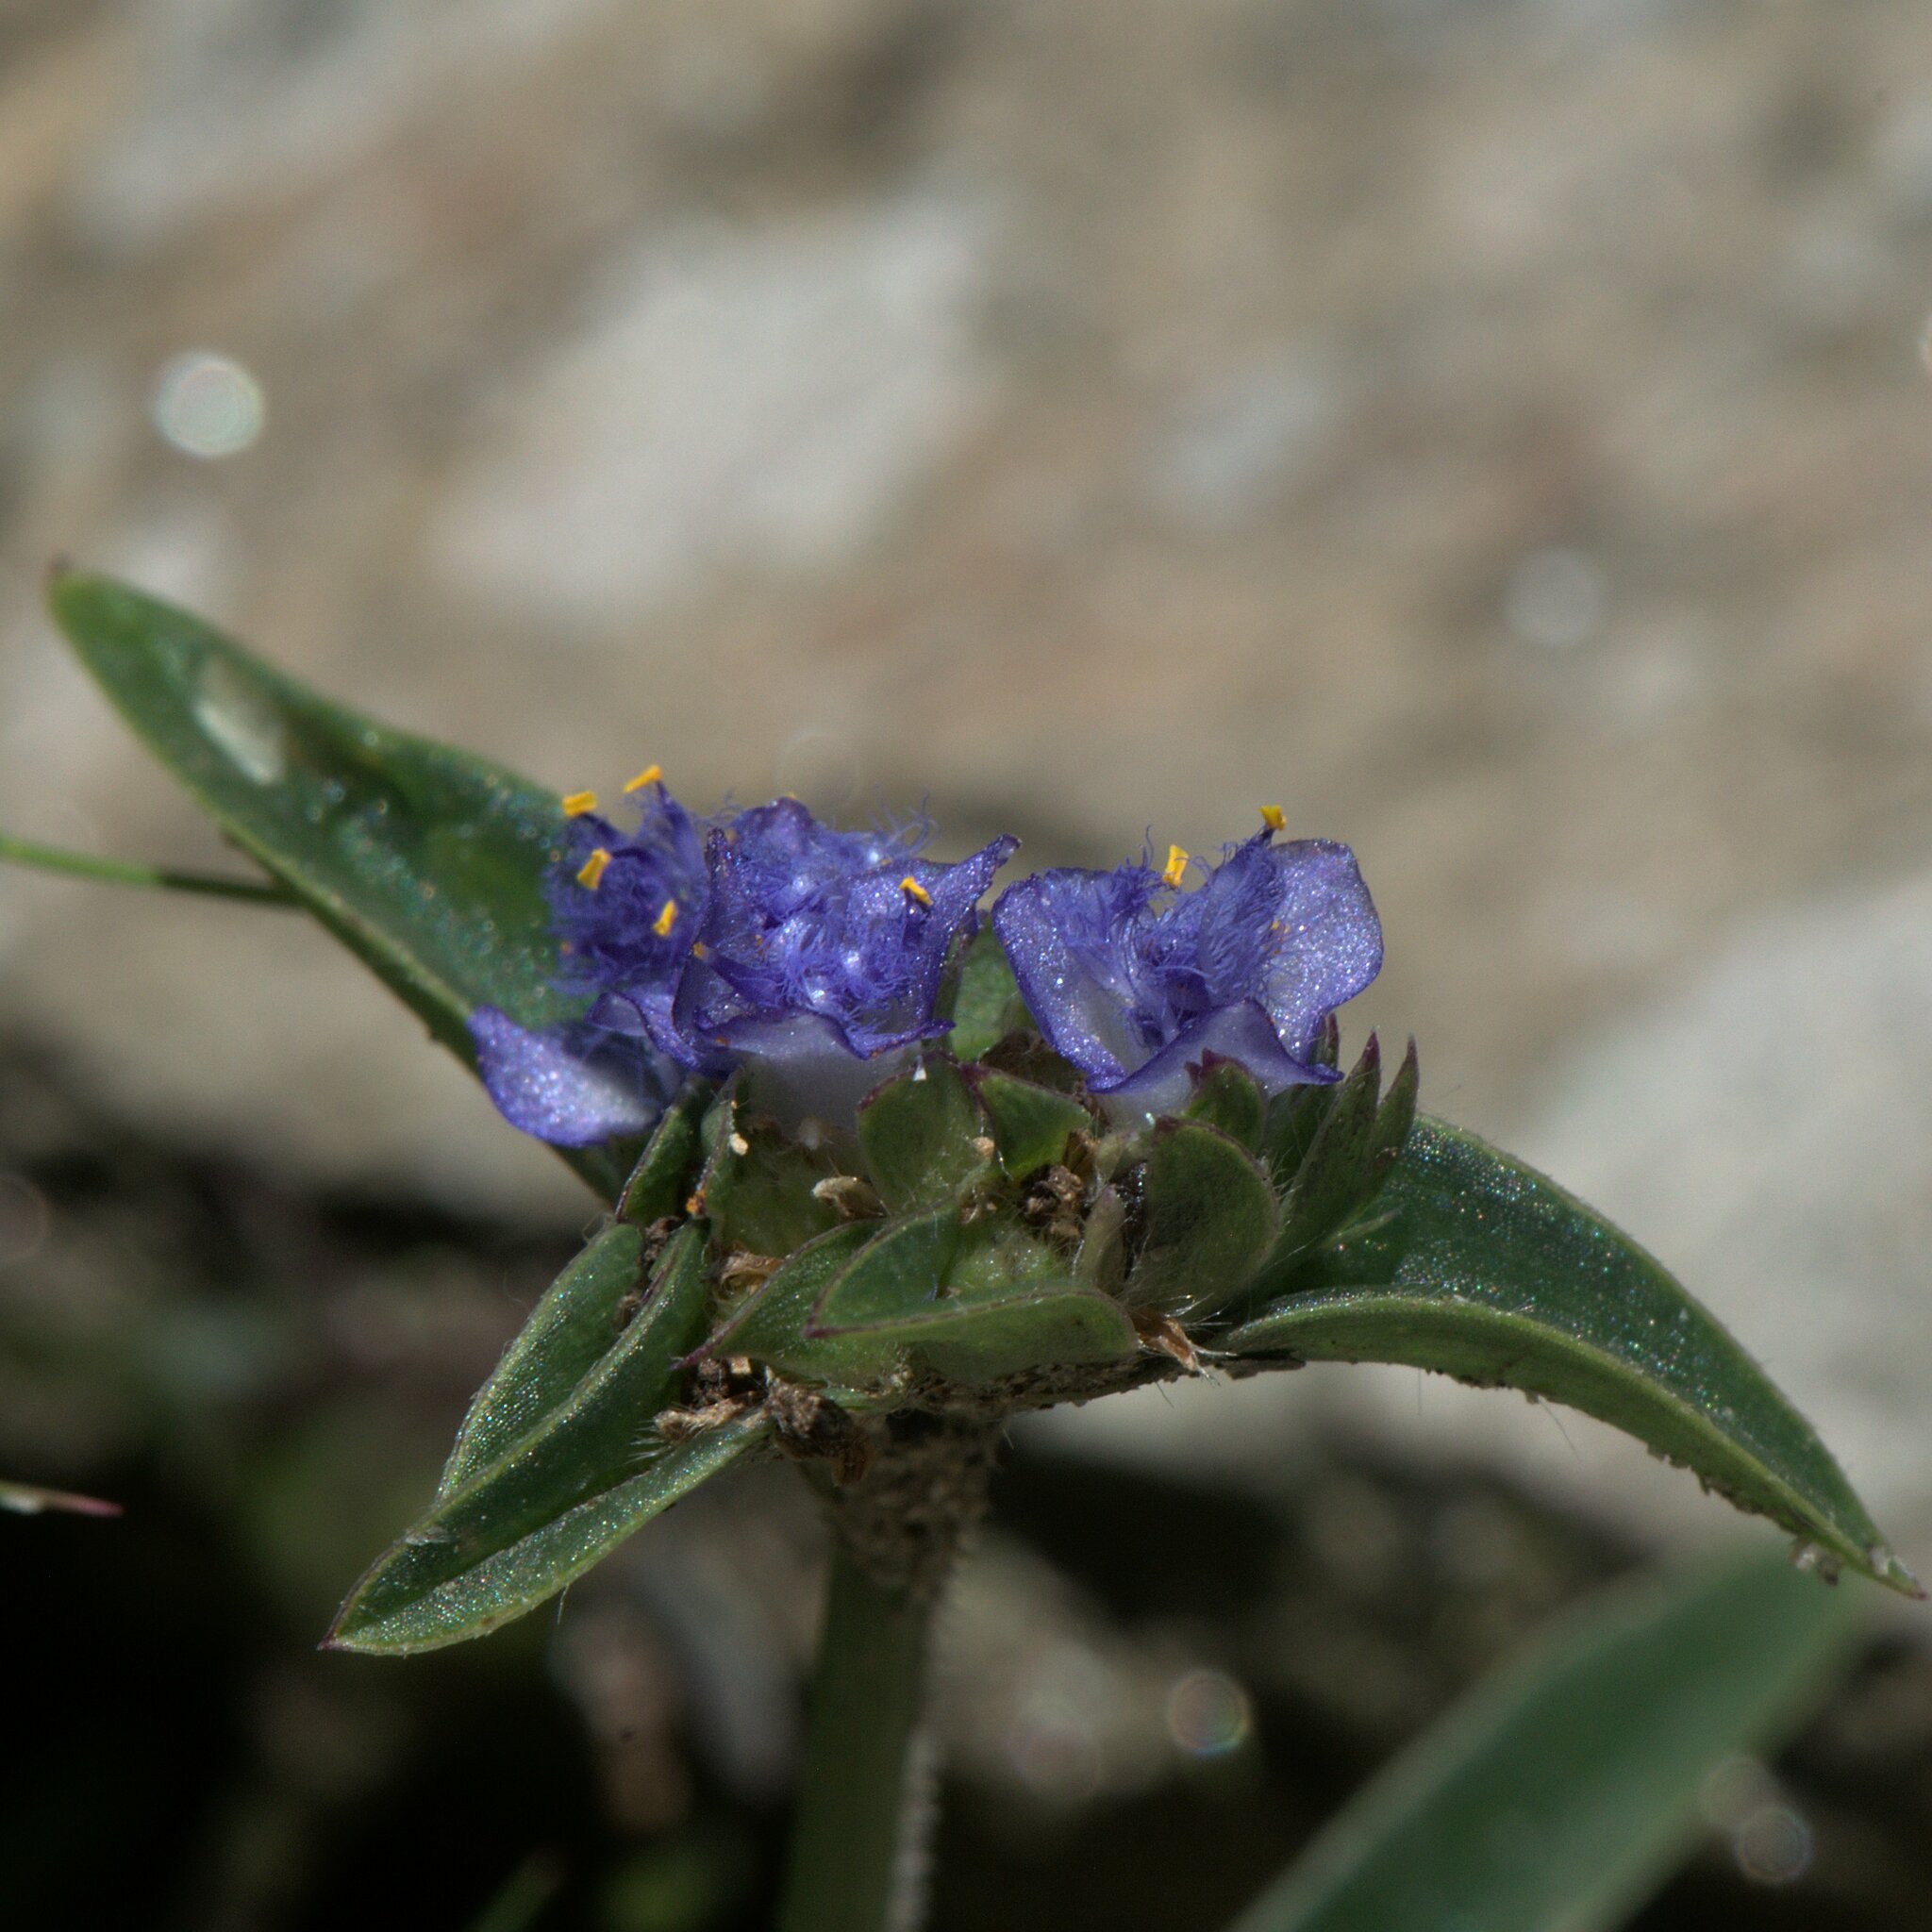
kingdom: Plantae
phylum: Tracheophyta
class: Liliopsida
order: Commelinales
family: Commelinaceae
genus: Cyanotis
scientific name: Cyanotis vaga
